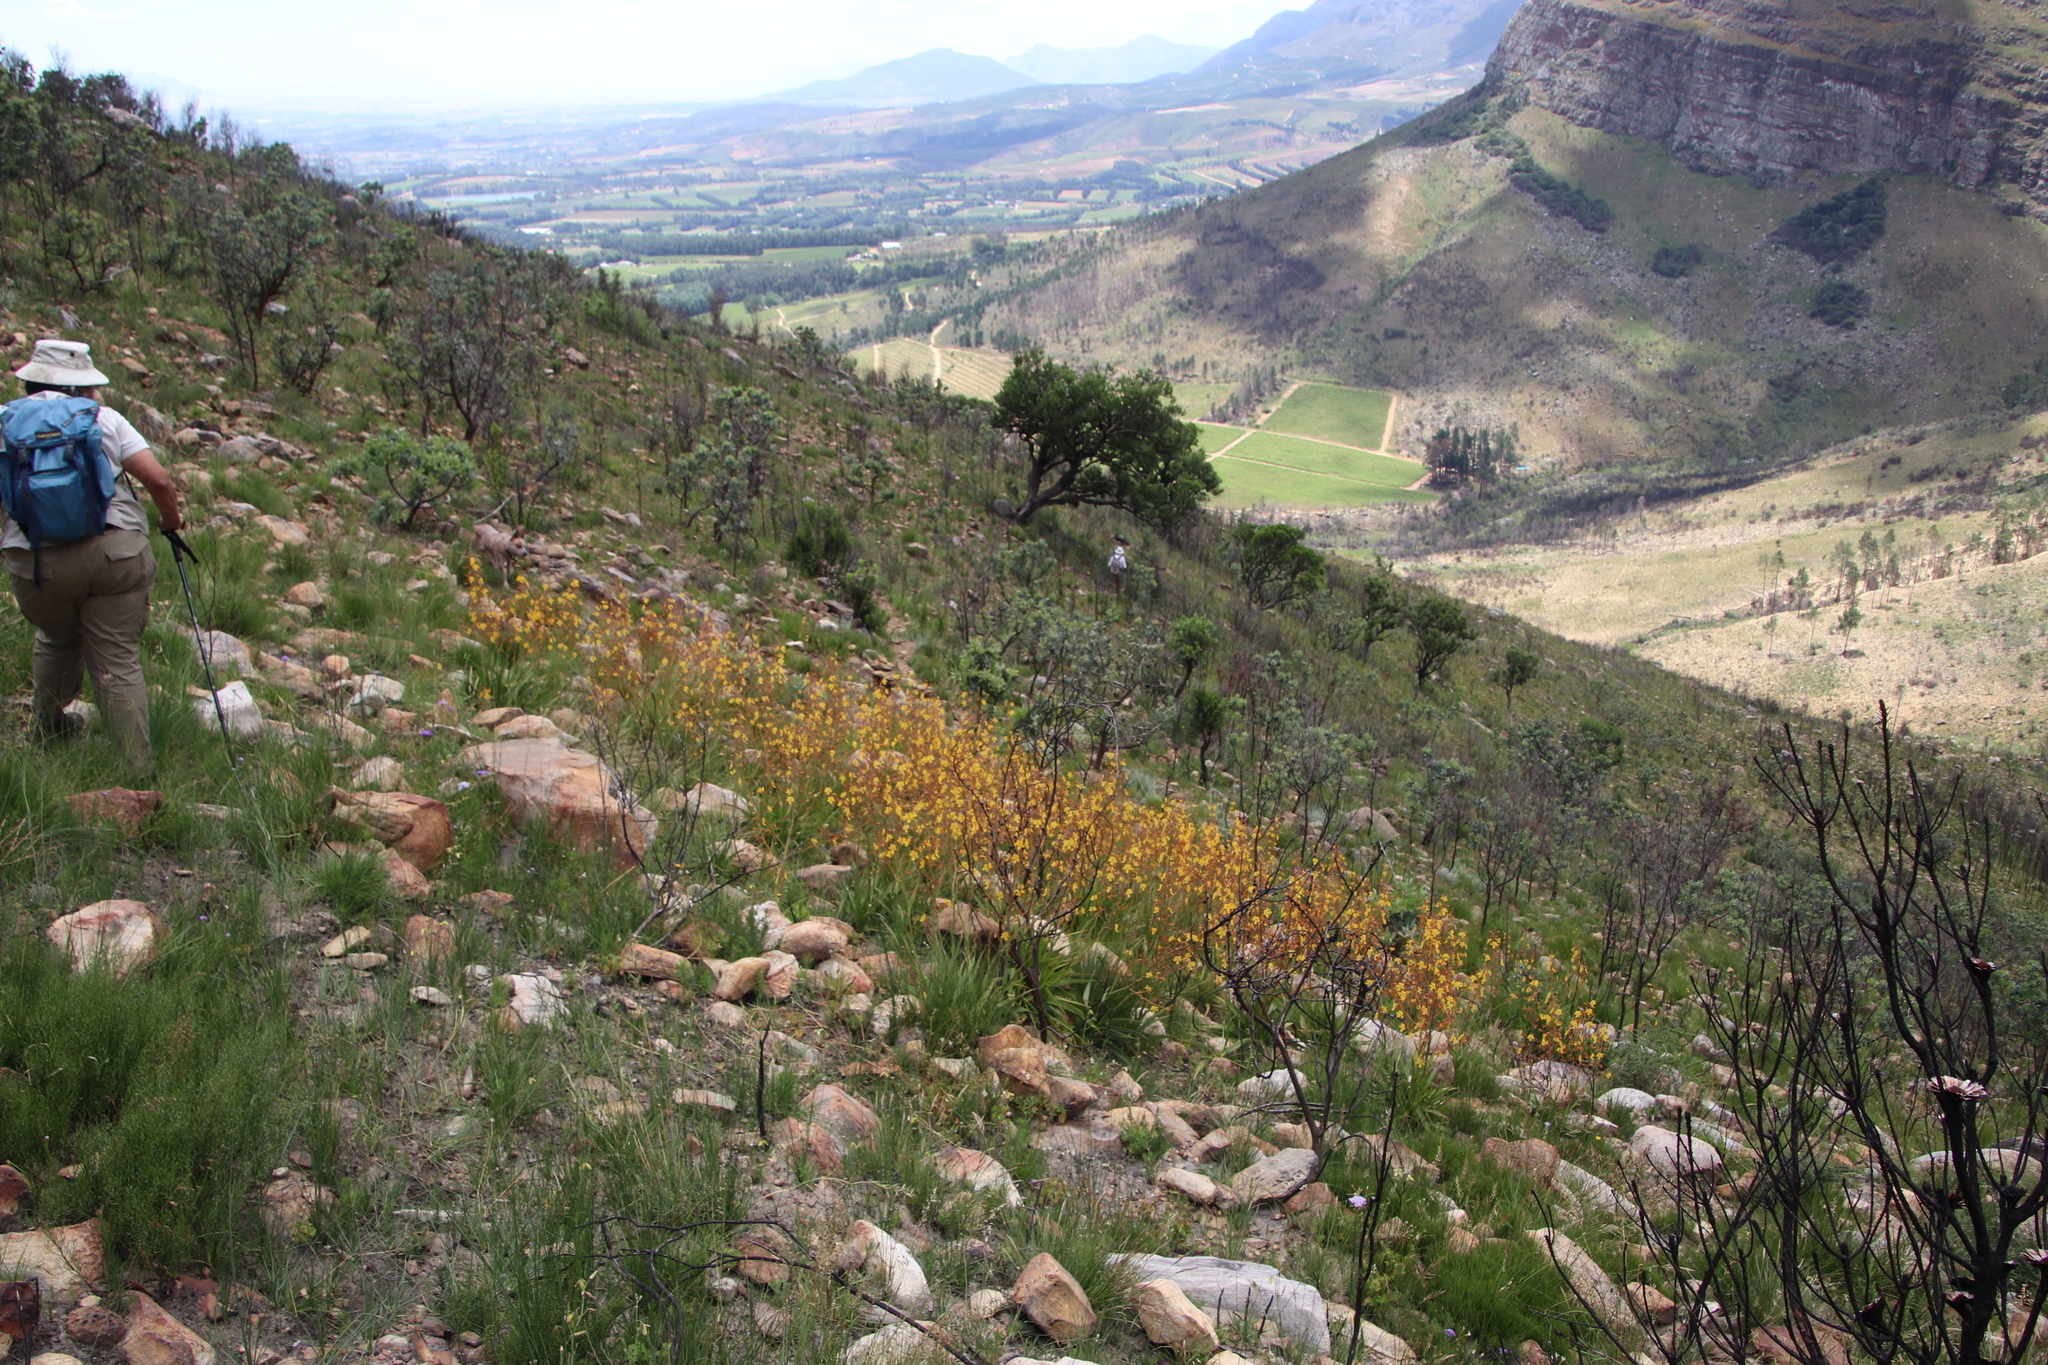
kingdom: Plantae
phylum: Tracheophyta
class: Liliopsida
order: Commelinales
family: Haemodoraceae
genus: Wachendorfia
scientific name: Wachendorfia paniculata
